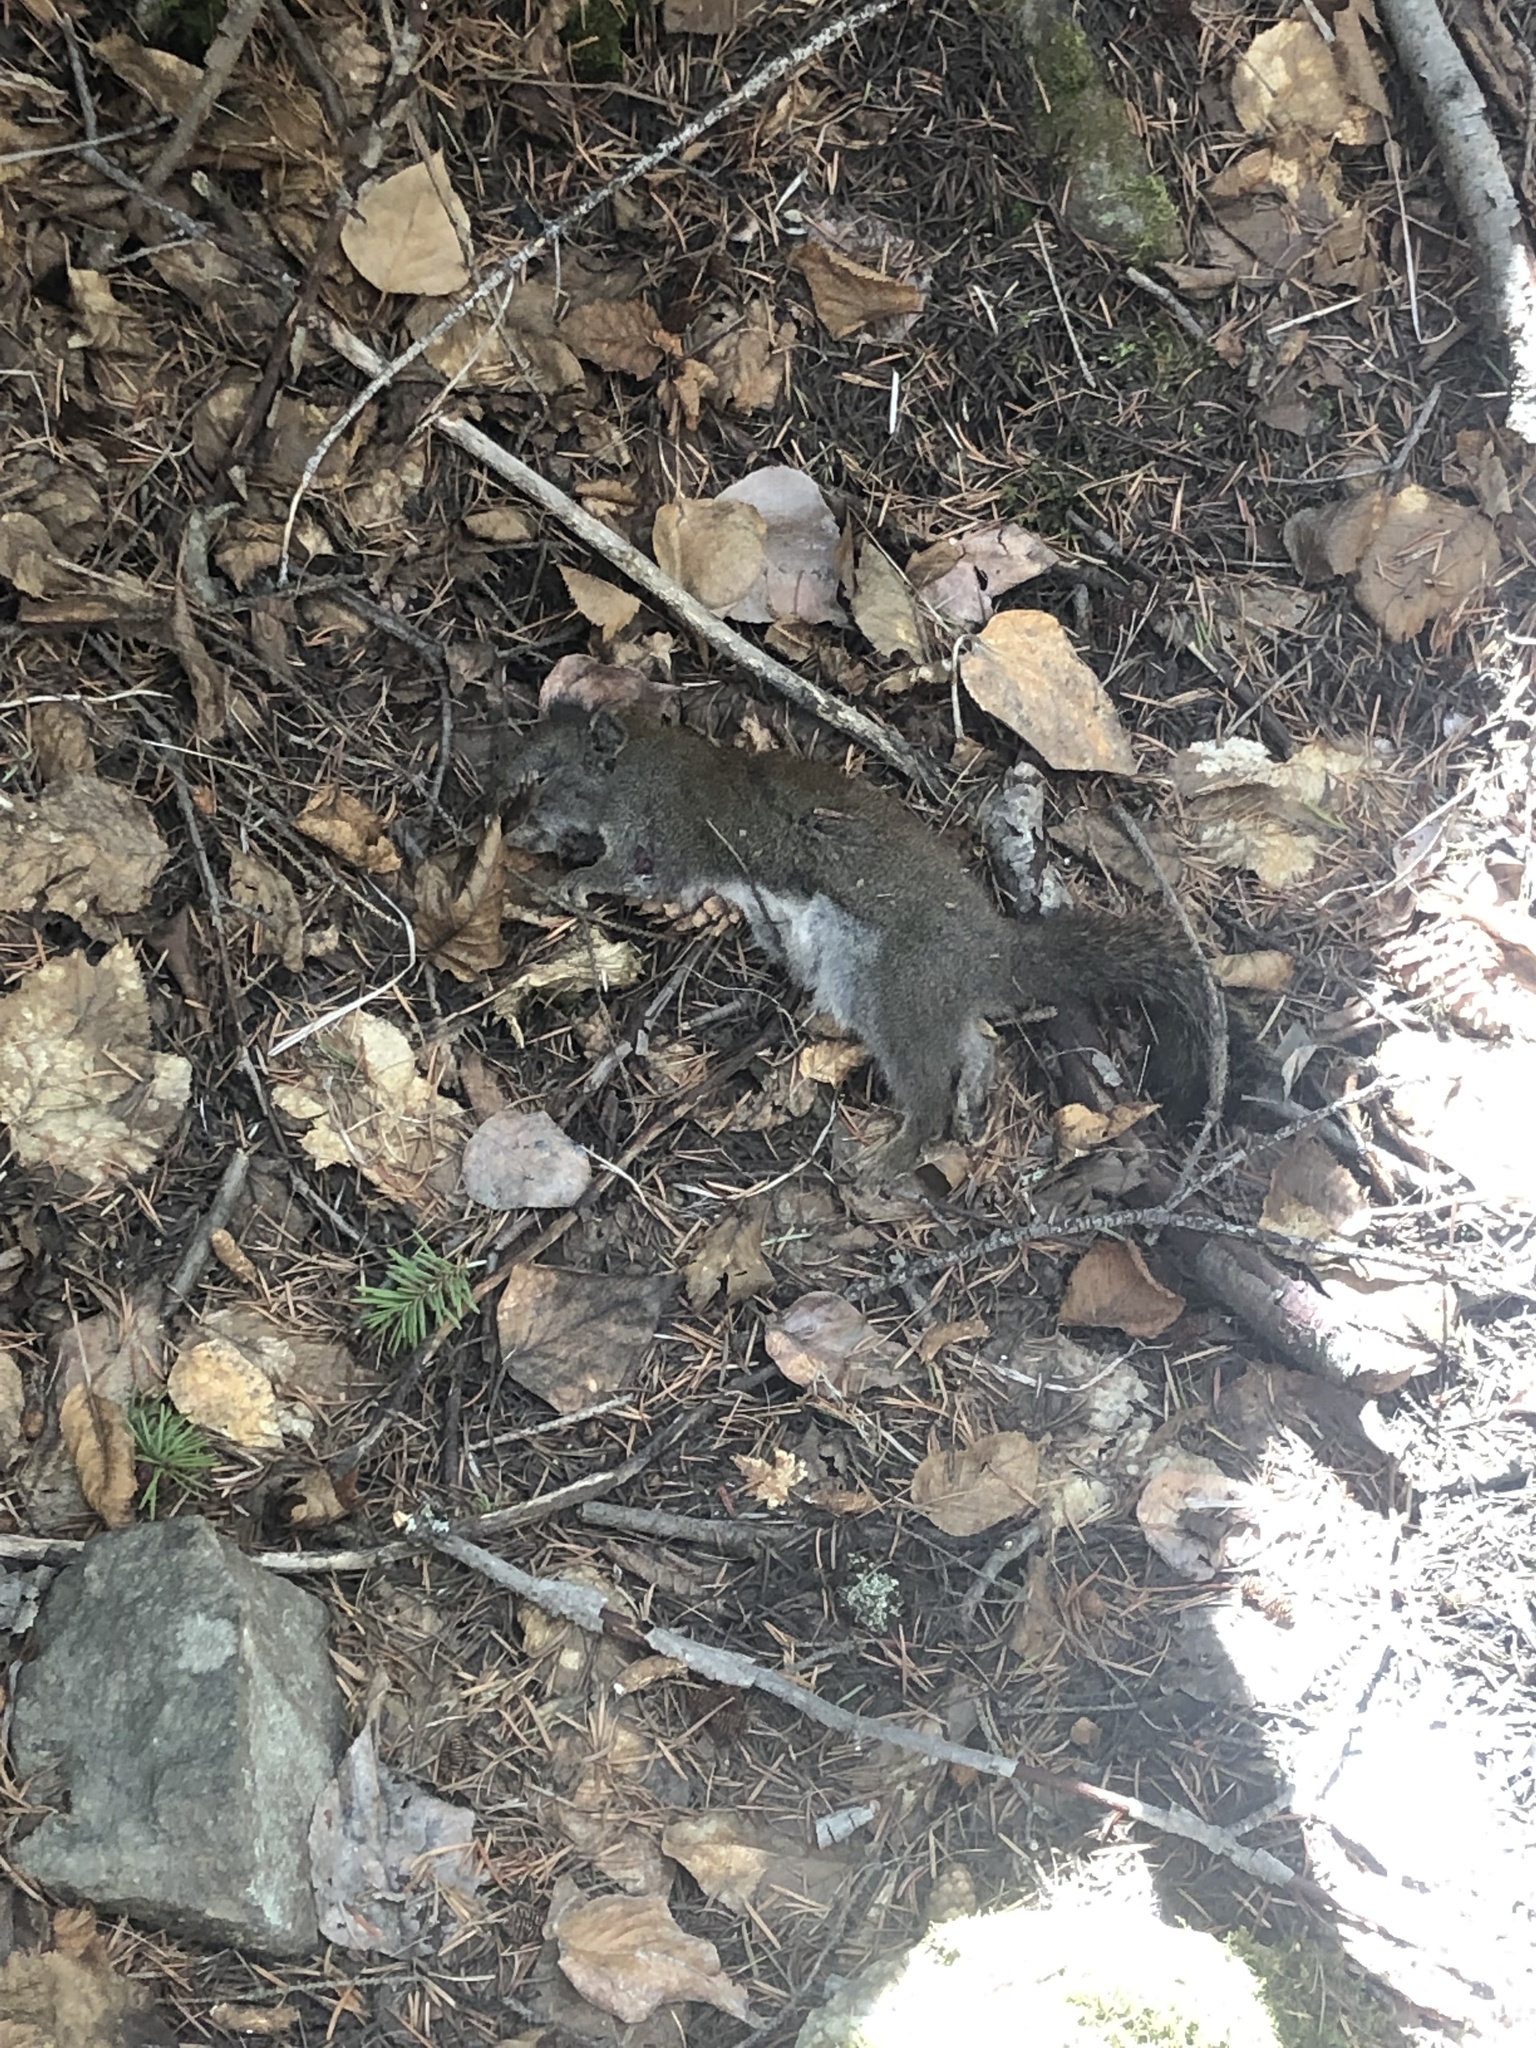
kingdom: Animalia
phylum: Chordata
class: Mammalia
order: Rodentia
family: Sciuridae
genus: Tamiasciurus
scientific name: Tamiasciurus hudsonicus
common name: Red squirrel
